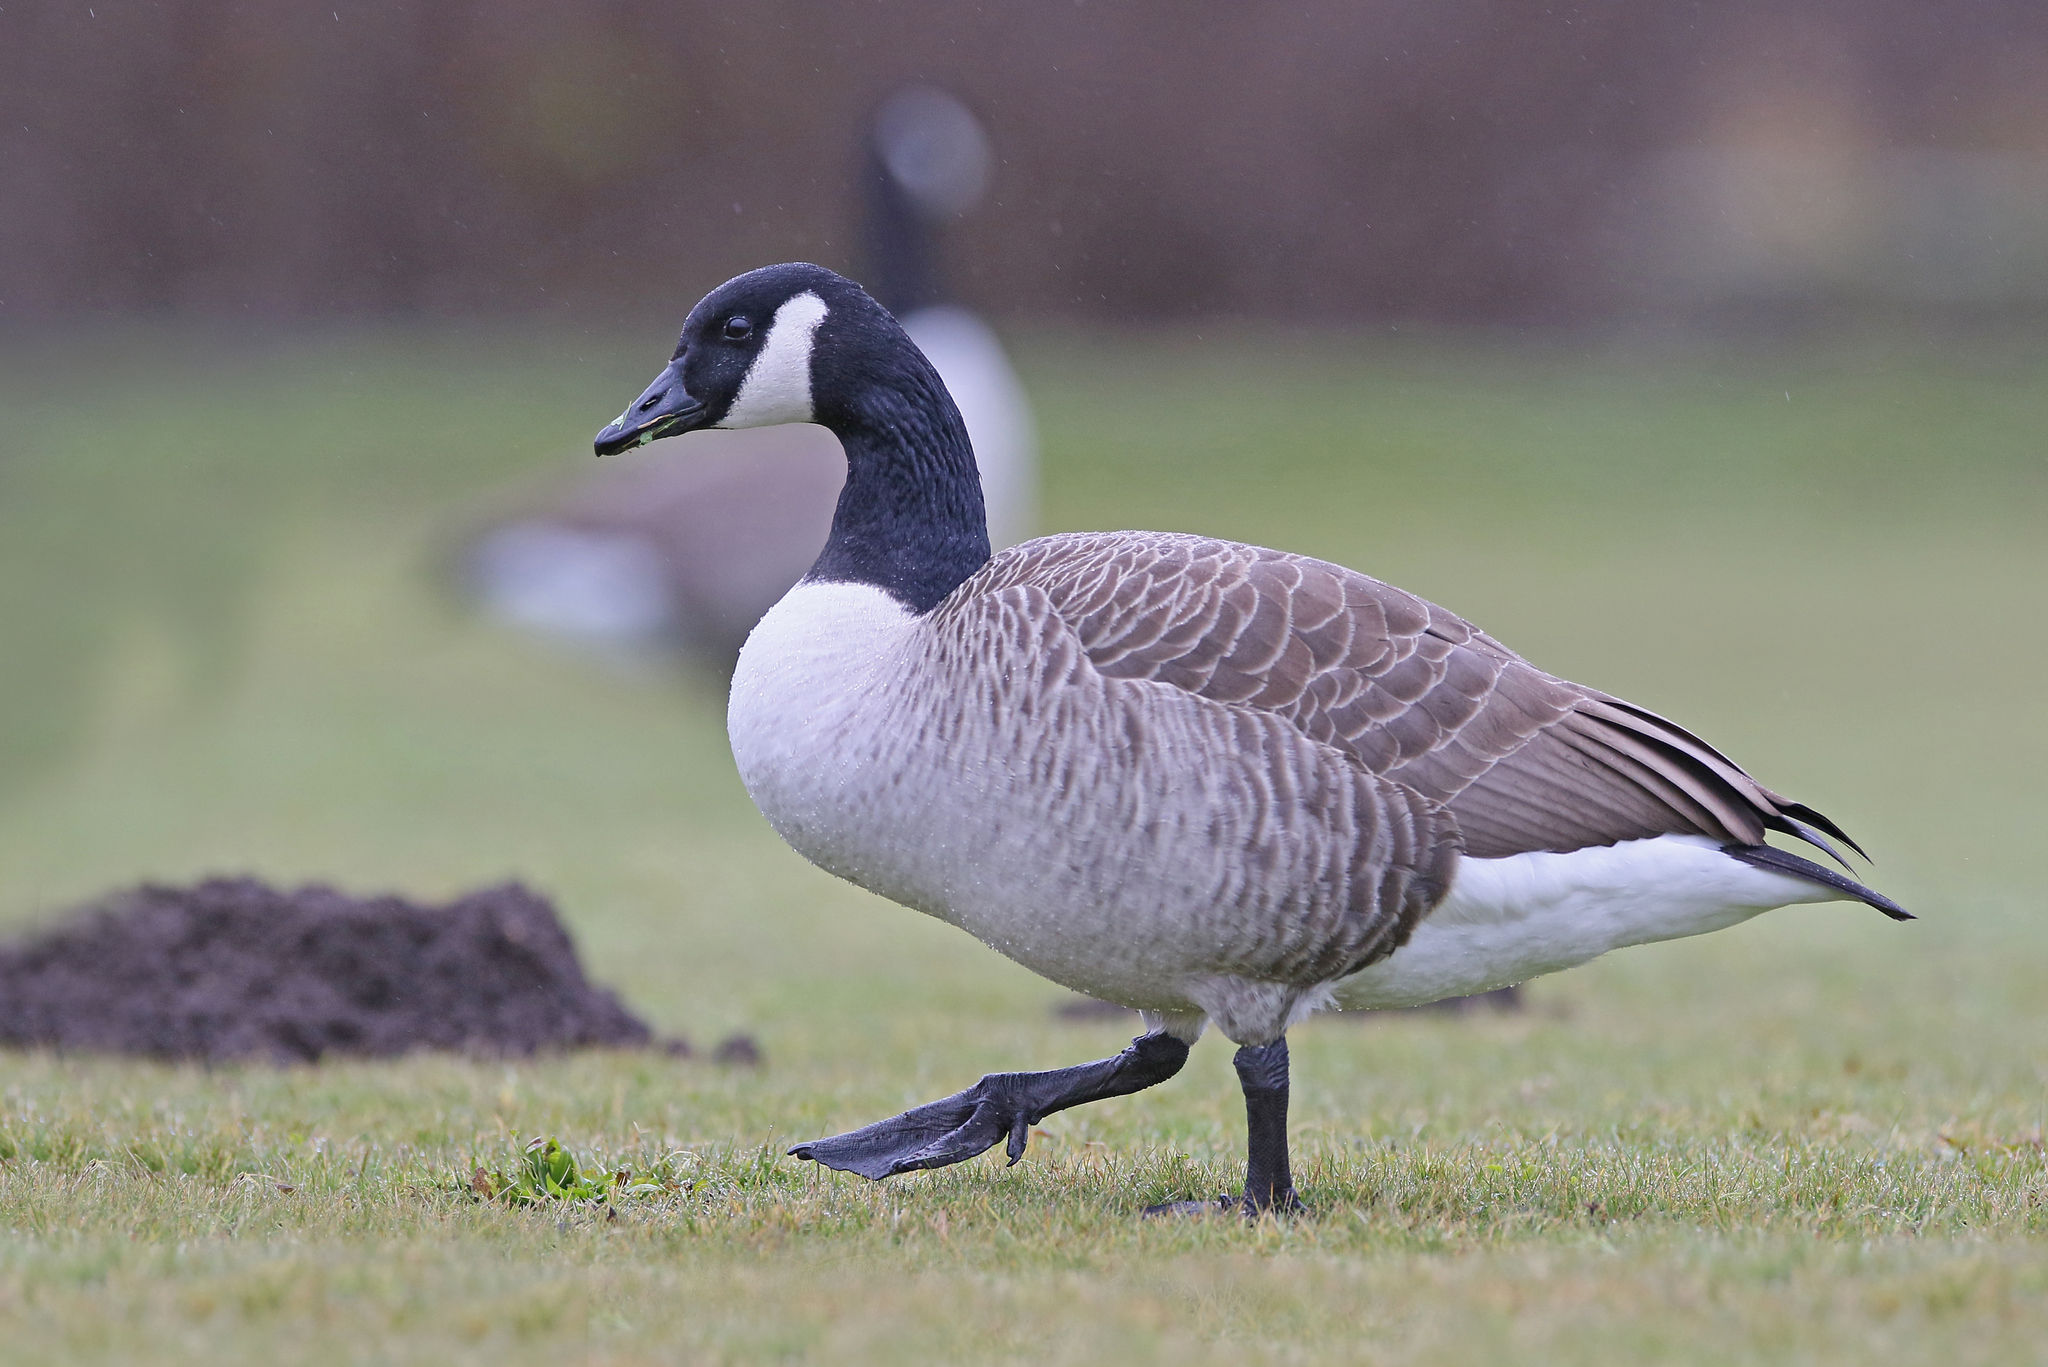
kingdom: Animalia
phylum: Chordata
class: Aves
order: Anseriformes
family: Anatidae
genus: Branta
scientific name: Branta canadensis
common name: Canada goose
